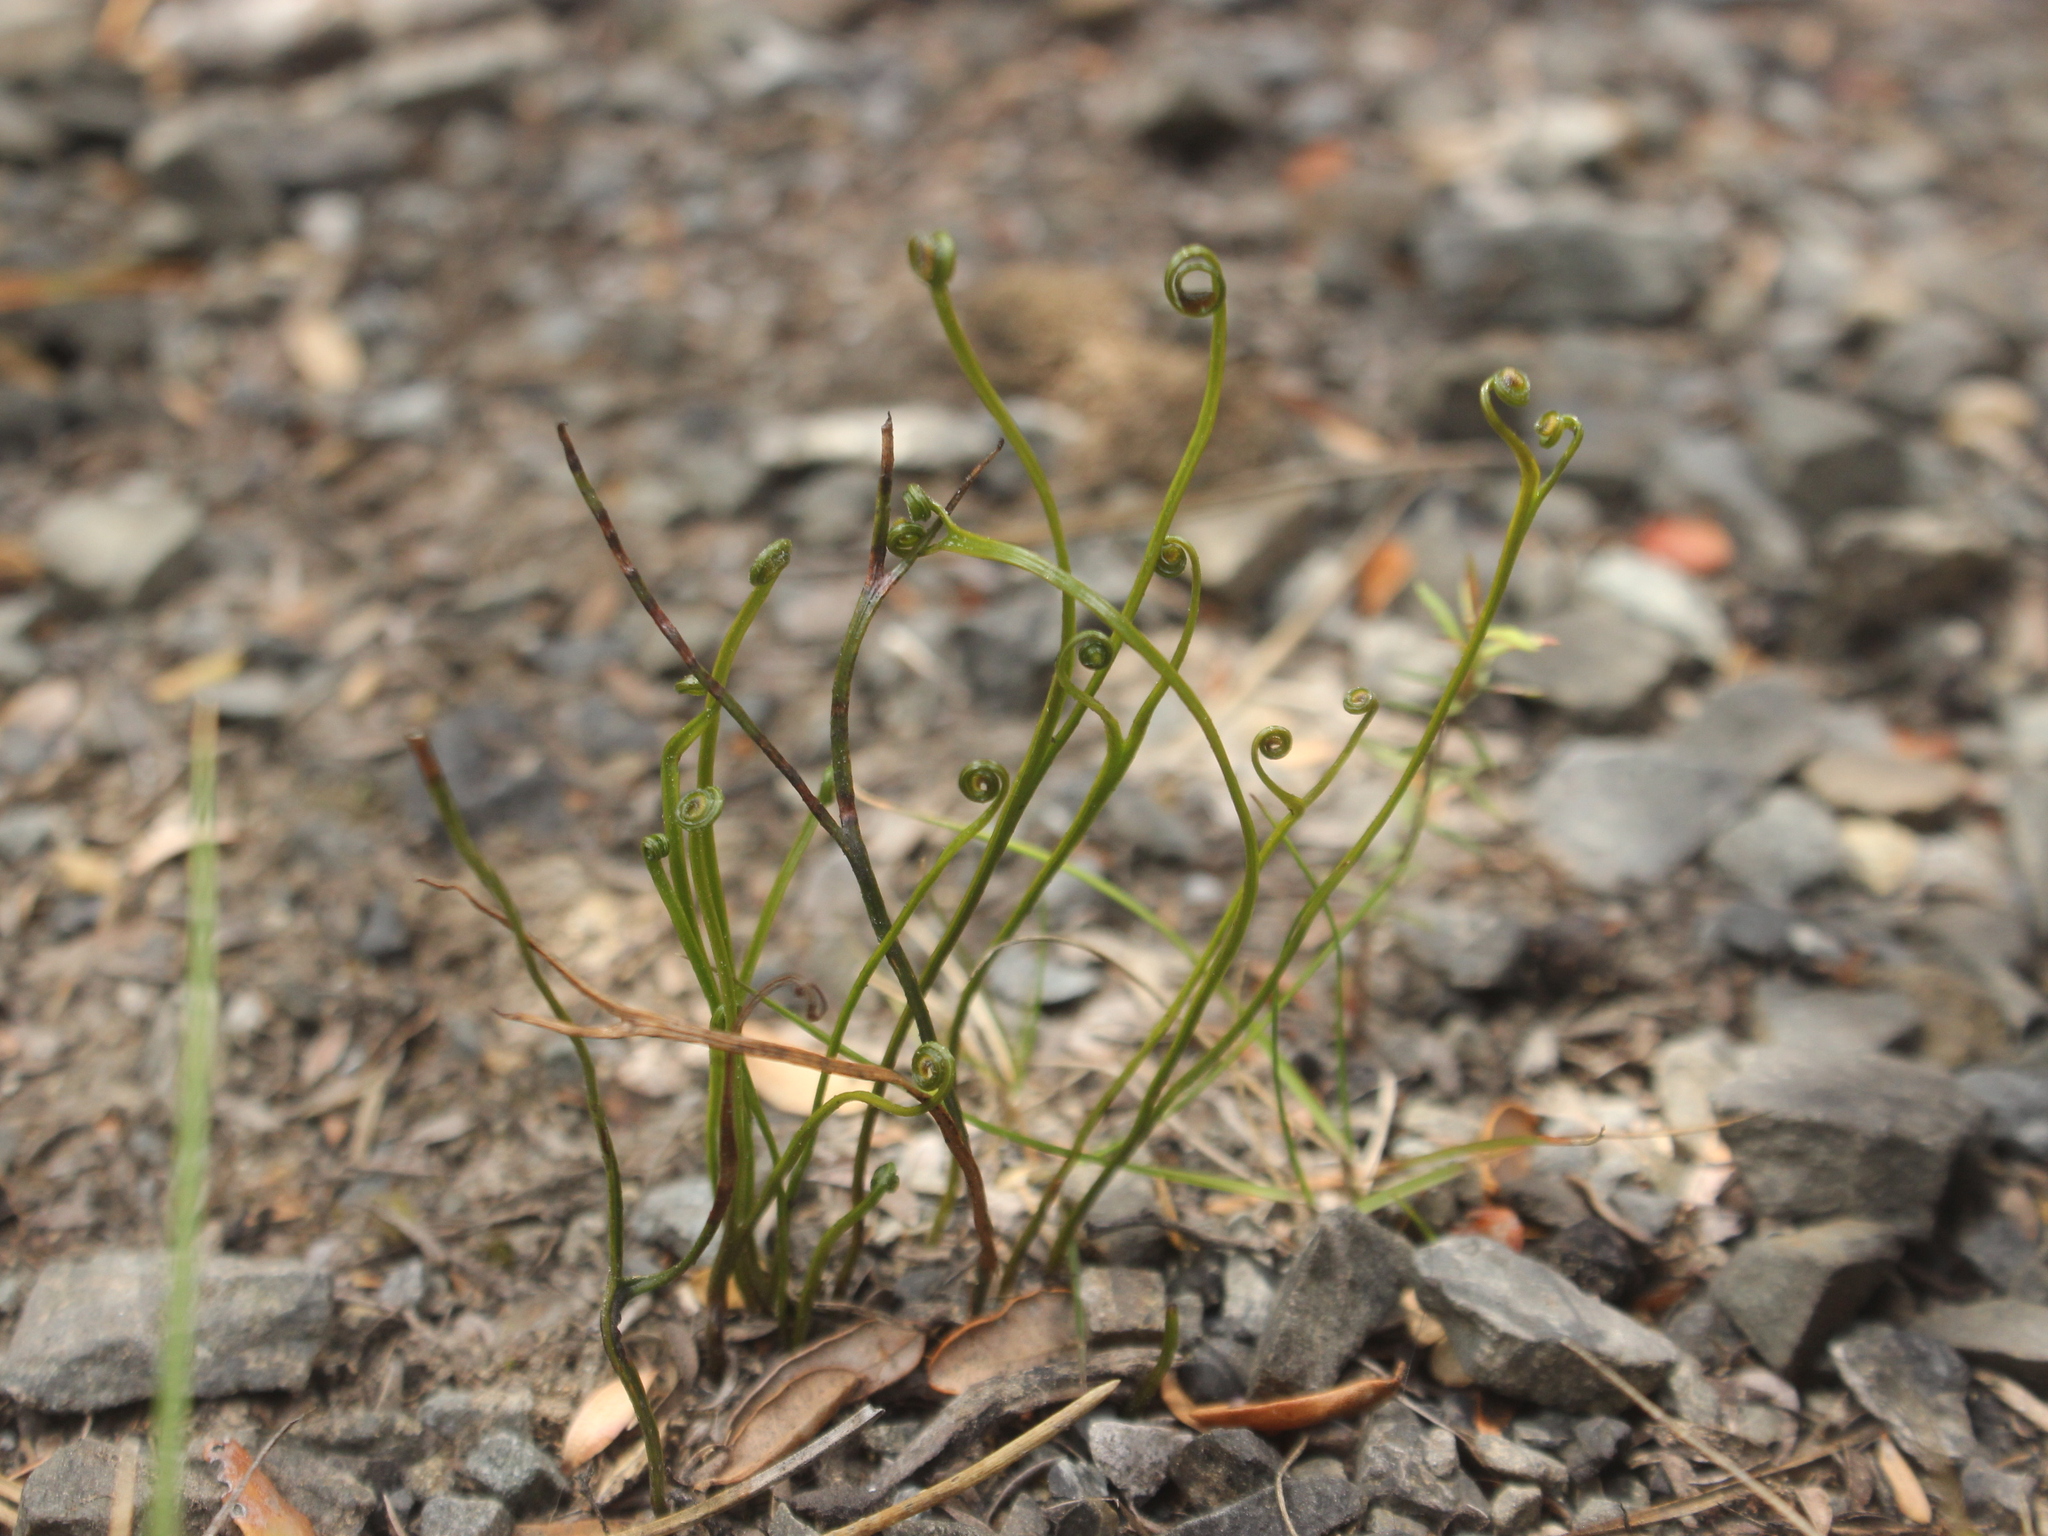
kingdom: Plantae
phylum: Tracheophyta
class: Polypodiopsida
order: Schizaeales
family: Schizaeaceae
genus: Schizaea
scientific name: Schizaea bifida
